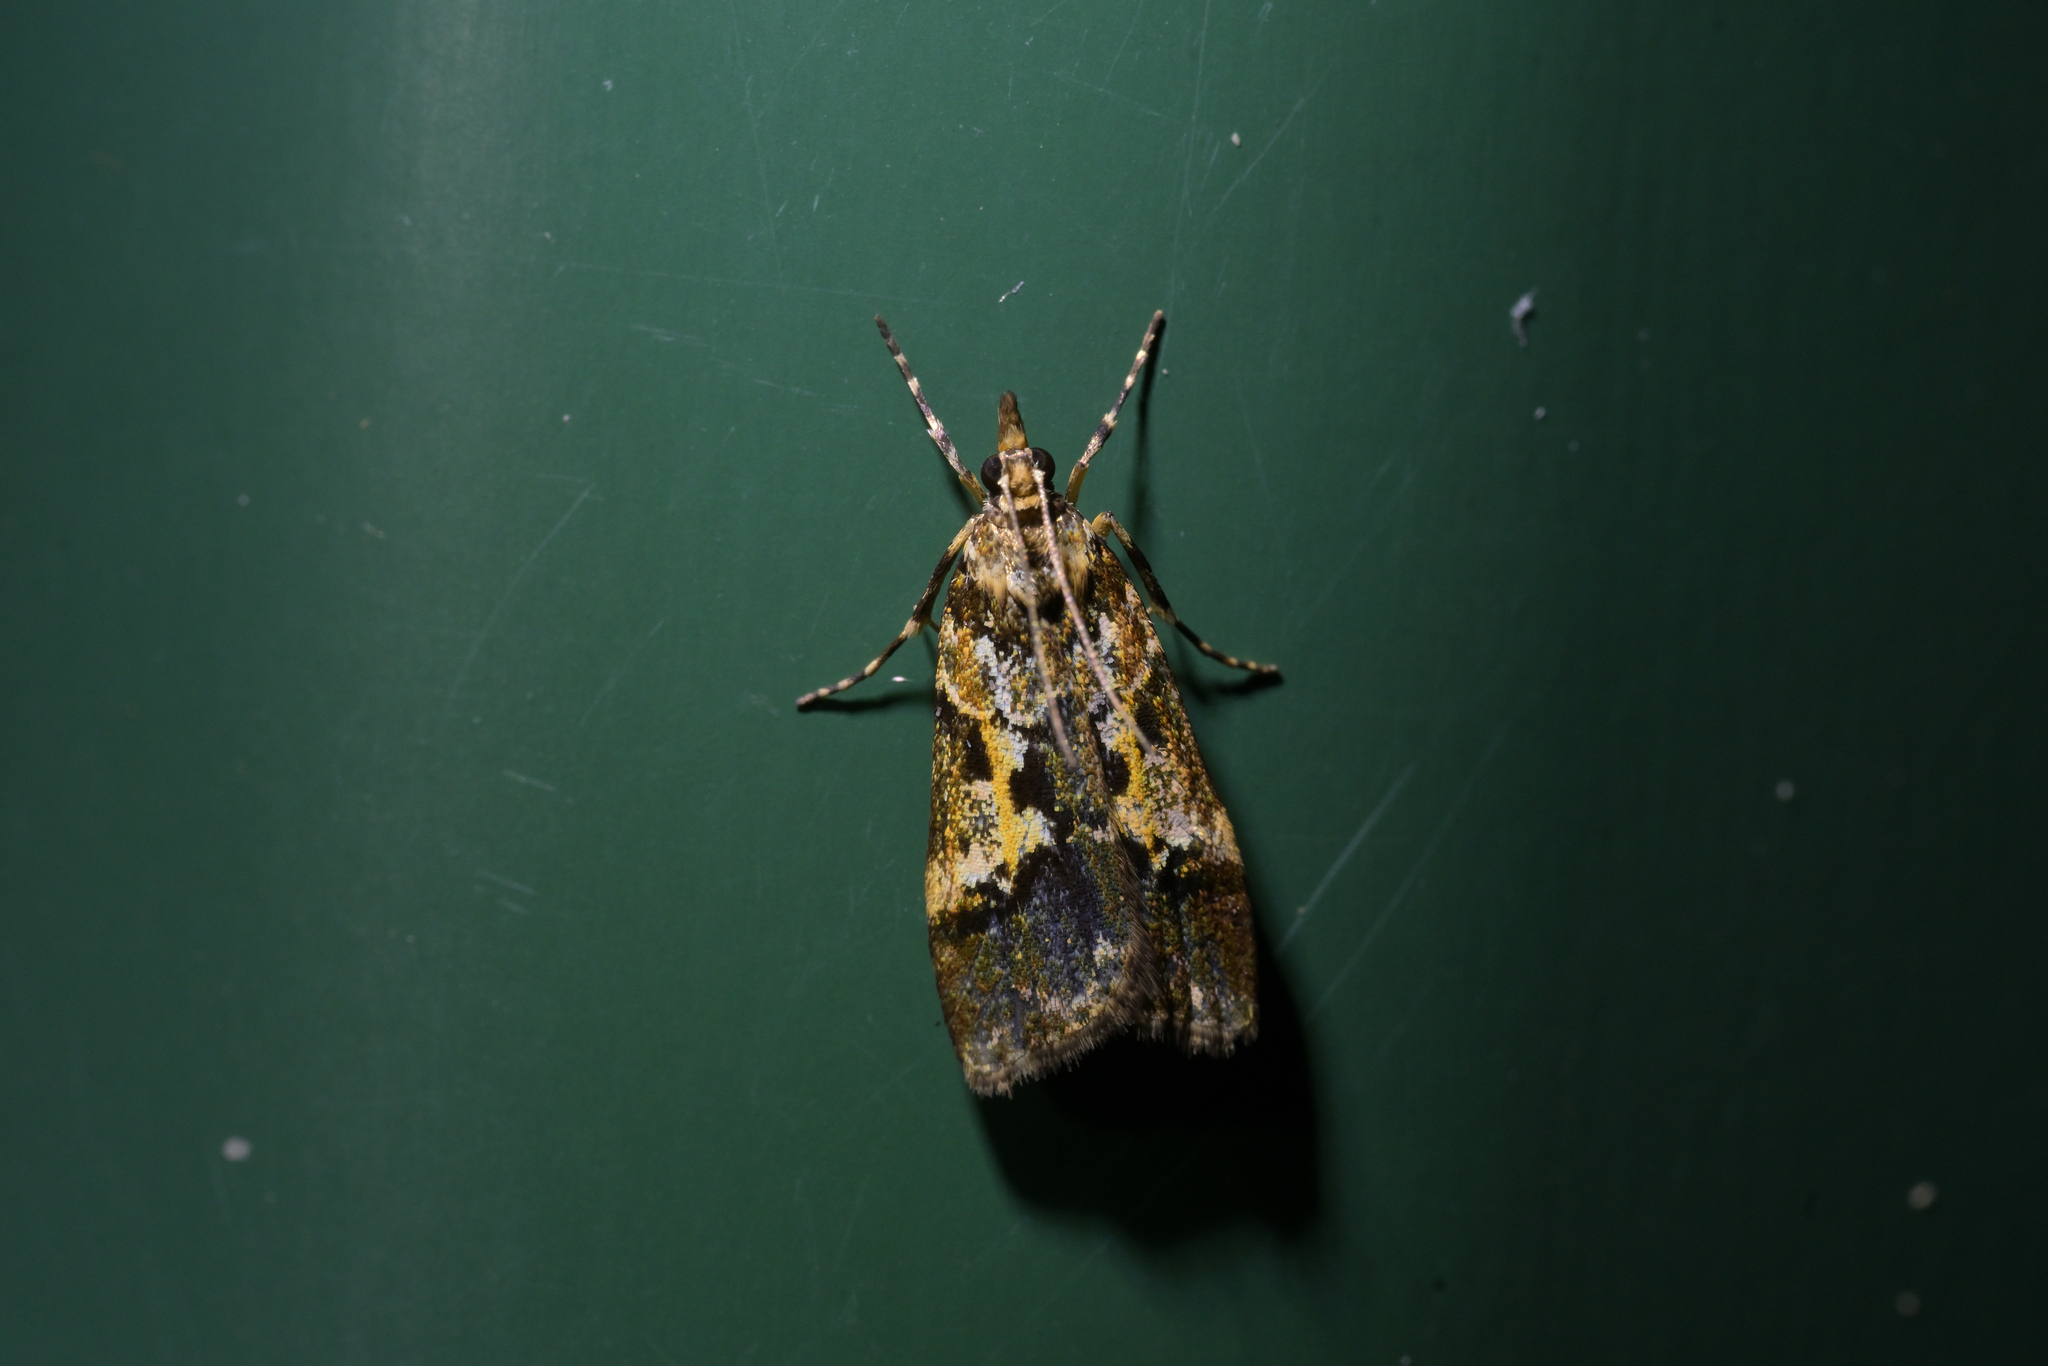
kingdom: Animalia
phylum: Arthropoda
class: Insecta
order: Lepidoptera
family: Crambidae
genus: Eudonia
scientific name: Eudonia characta
